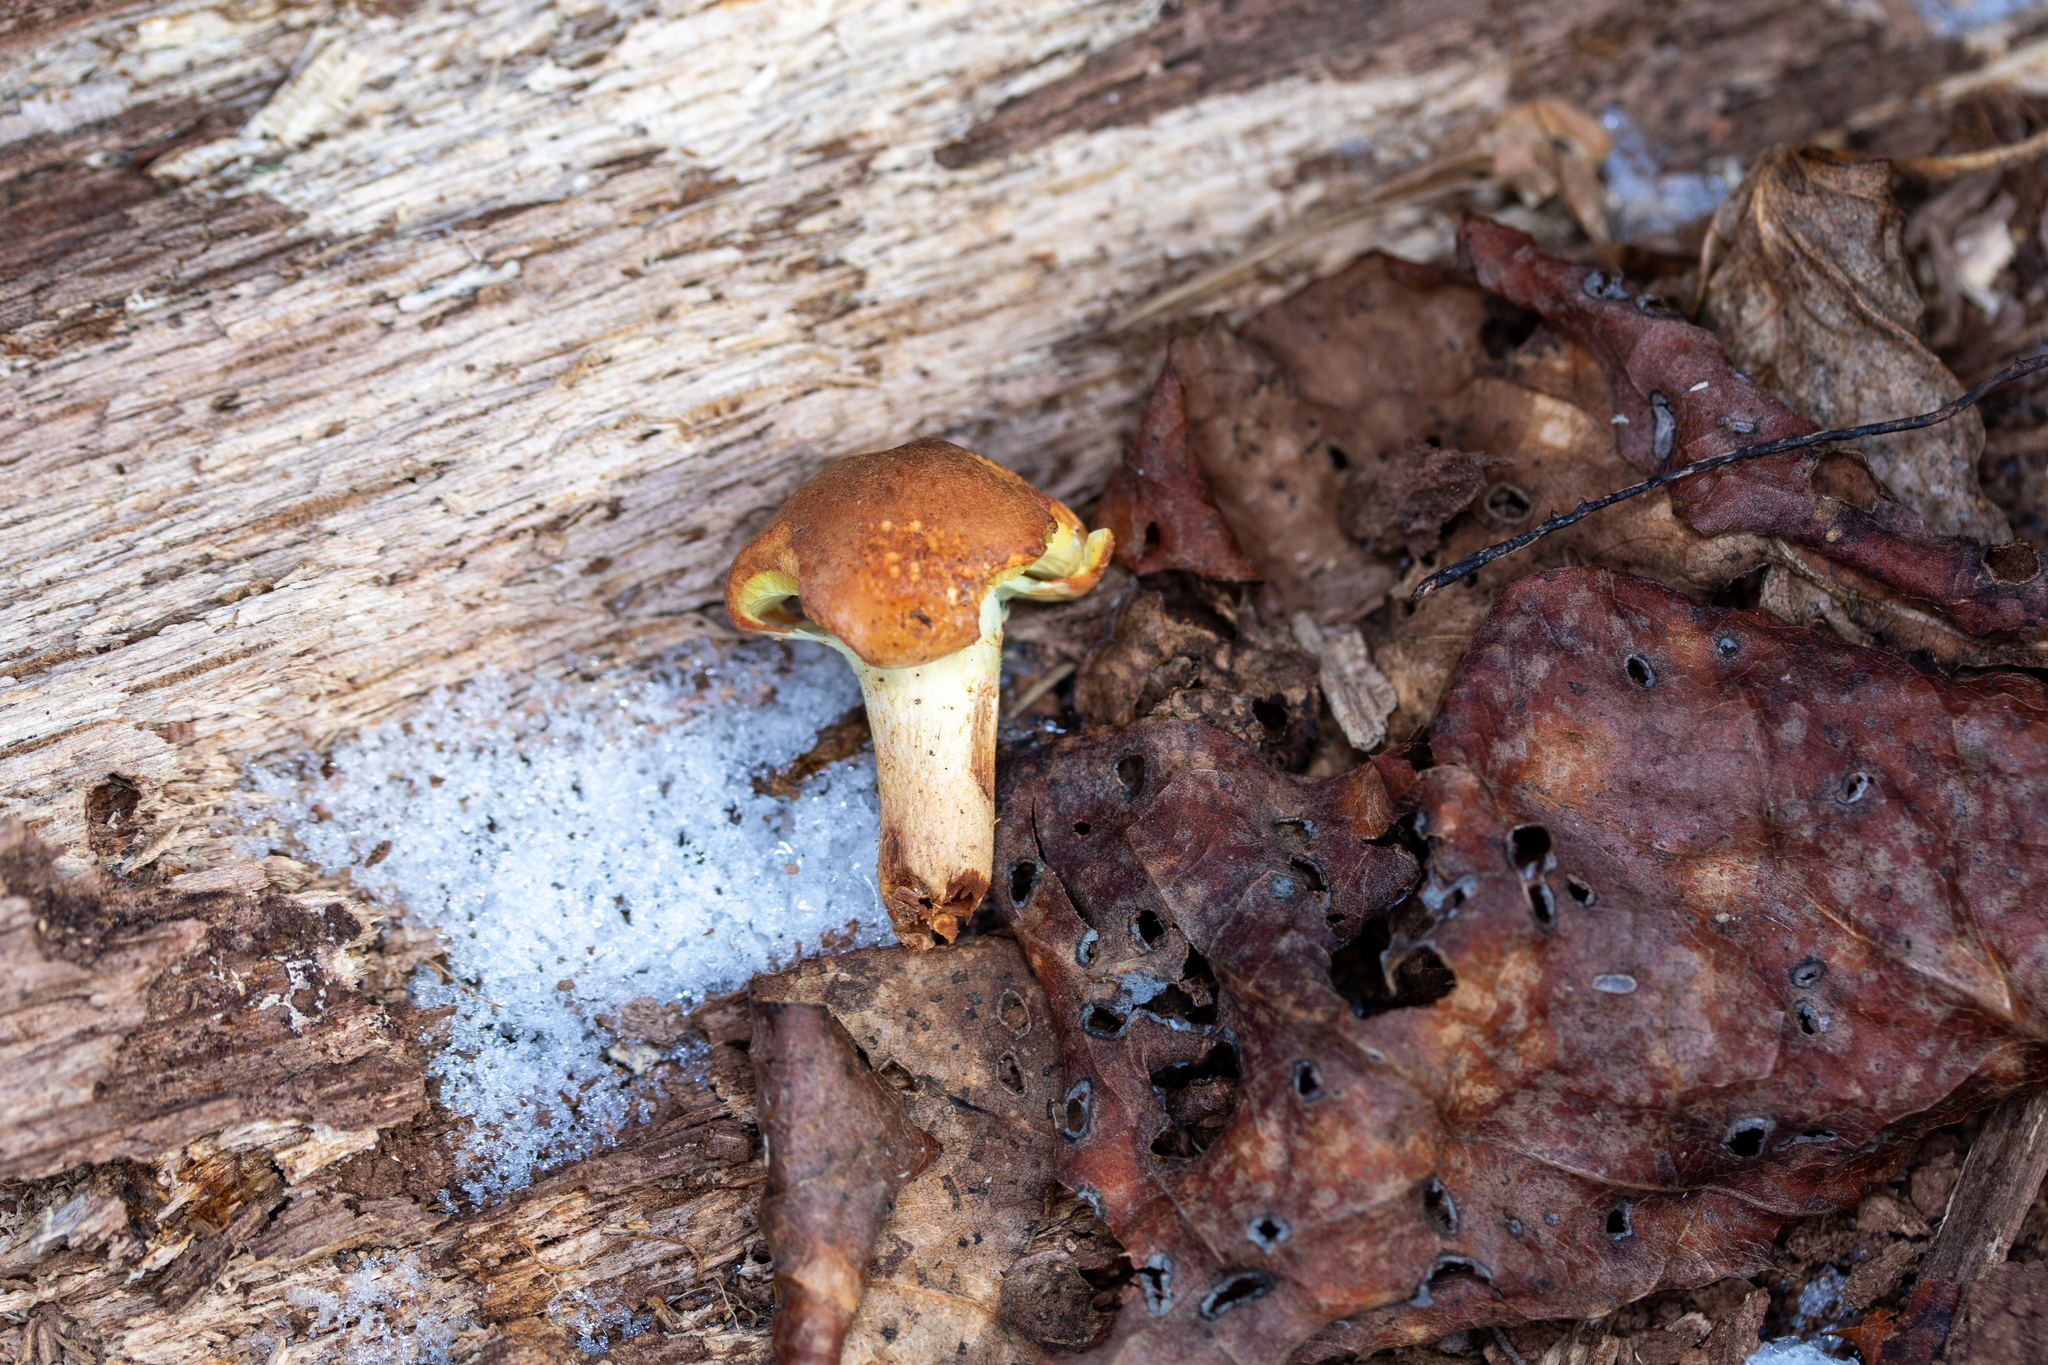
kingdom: Fungi
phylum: Basidiomycota
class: Agaricomycetes
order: Agaricales
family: Strophariaceae
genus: Hypholoma
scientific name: Hypholoma lateritium
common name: Brick caps
